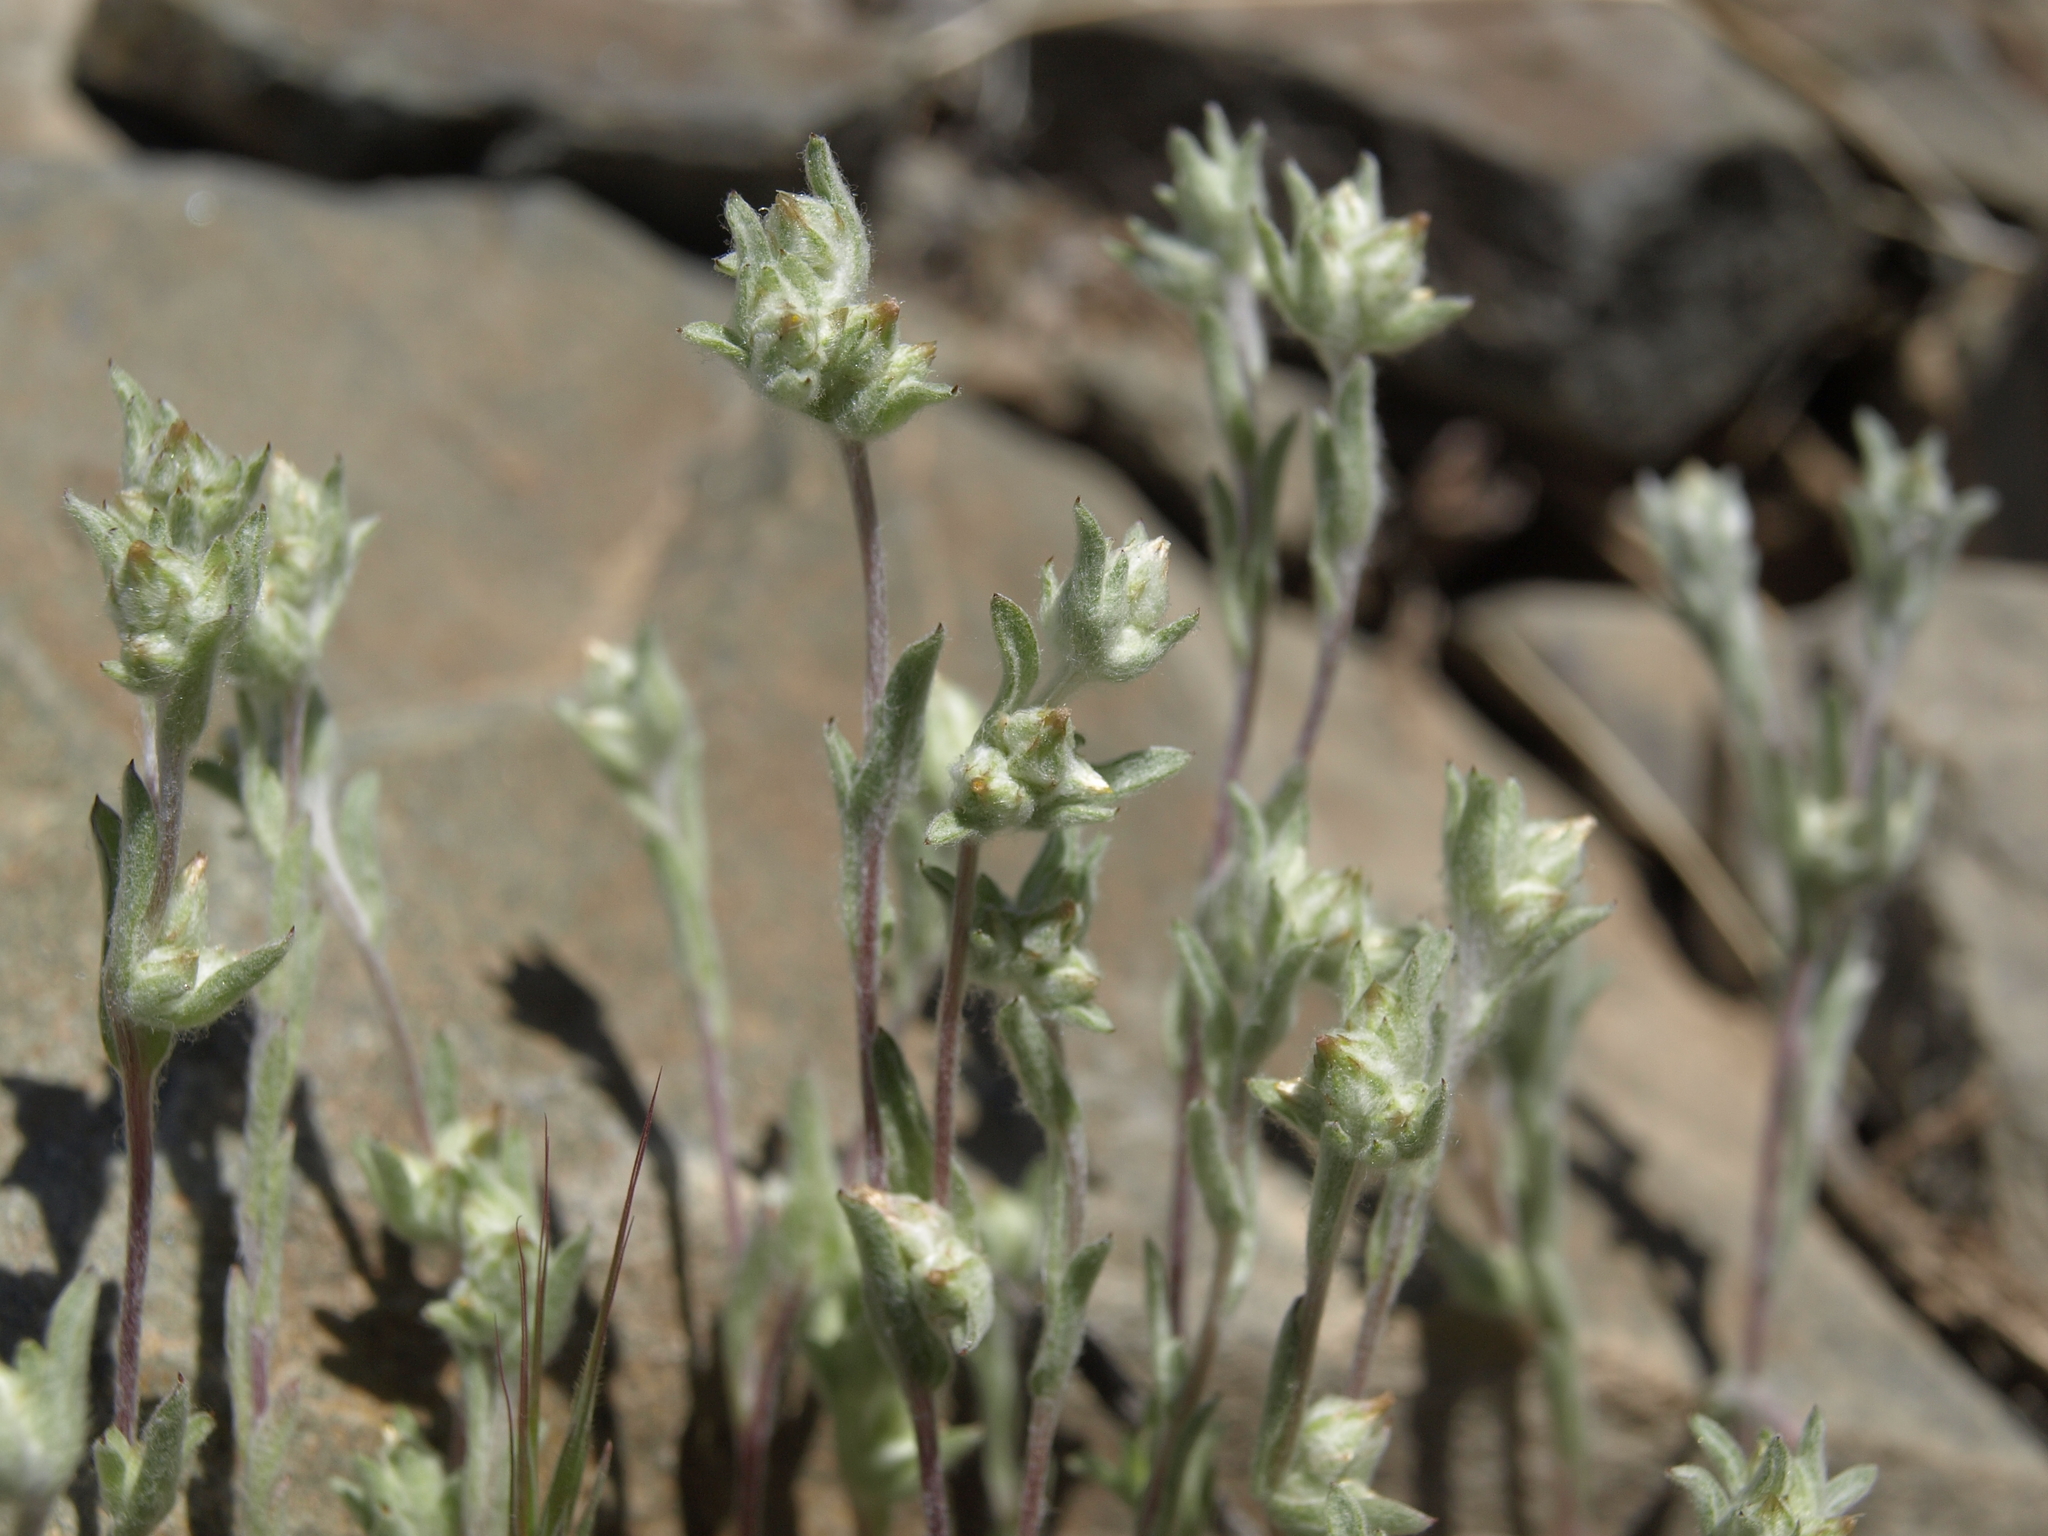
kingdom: Plantae
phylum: Tracheophyta
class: Magnoliopsida
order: Asterales
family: Asteraceae
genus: Logfia
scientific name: Logfia californica
